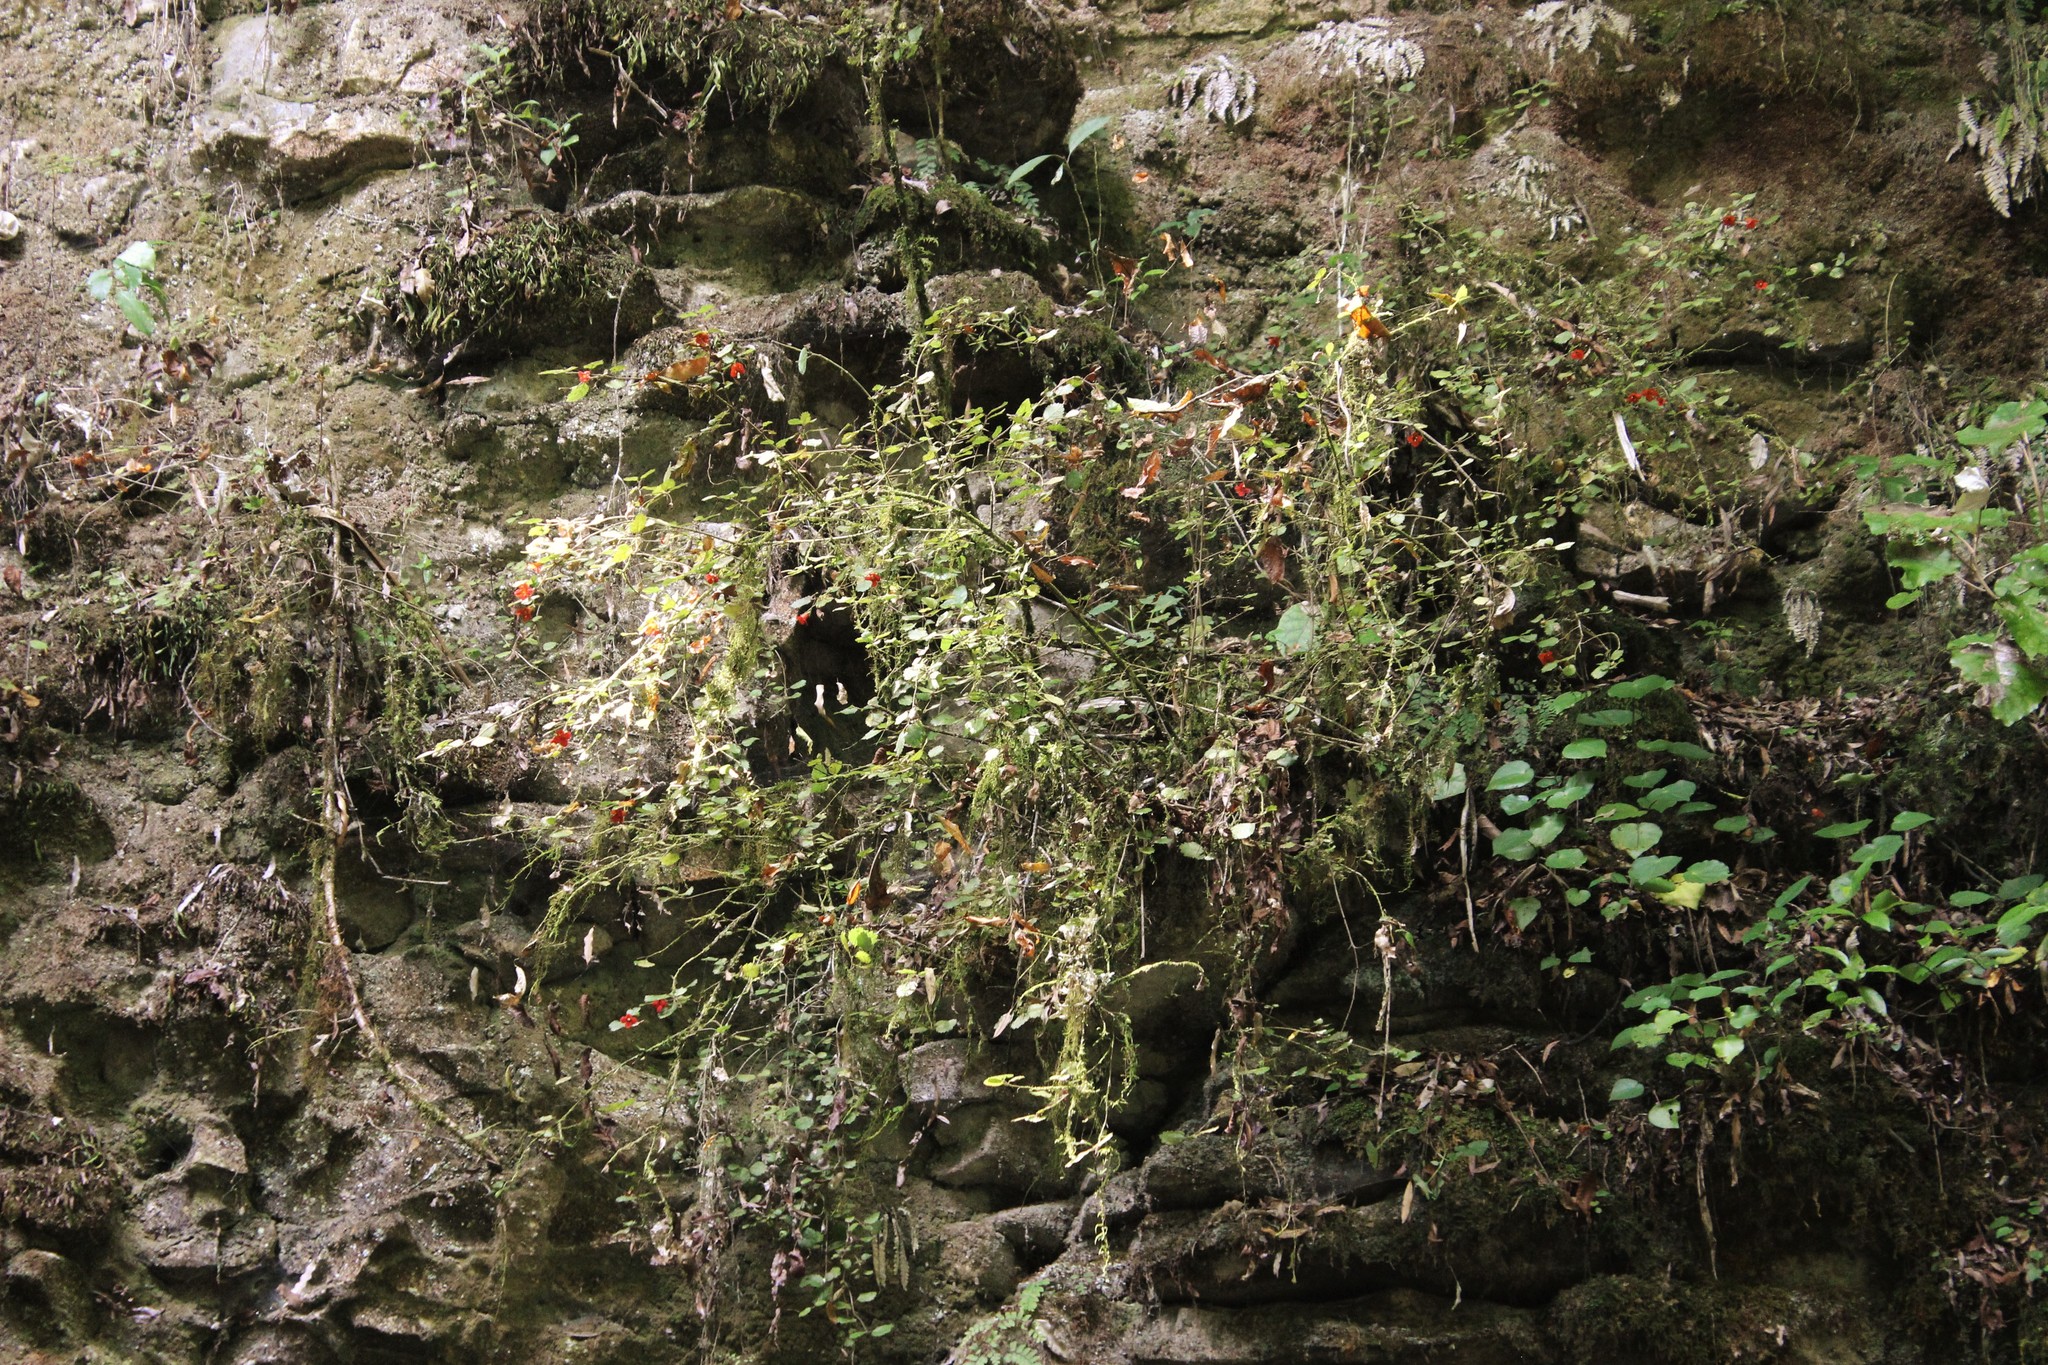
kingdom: Plantae
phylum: Tracheophyta
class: Magnoliopsida
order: Lamiales
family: Gesneriaceae
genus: Rhabdothamnus
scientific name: Rhabdothamnus solandri
